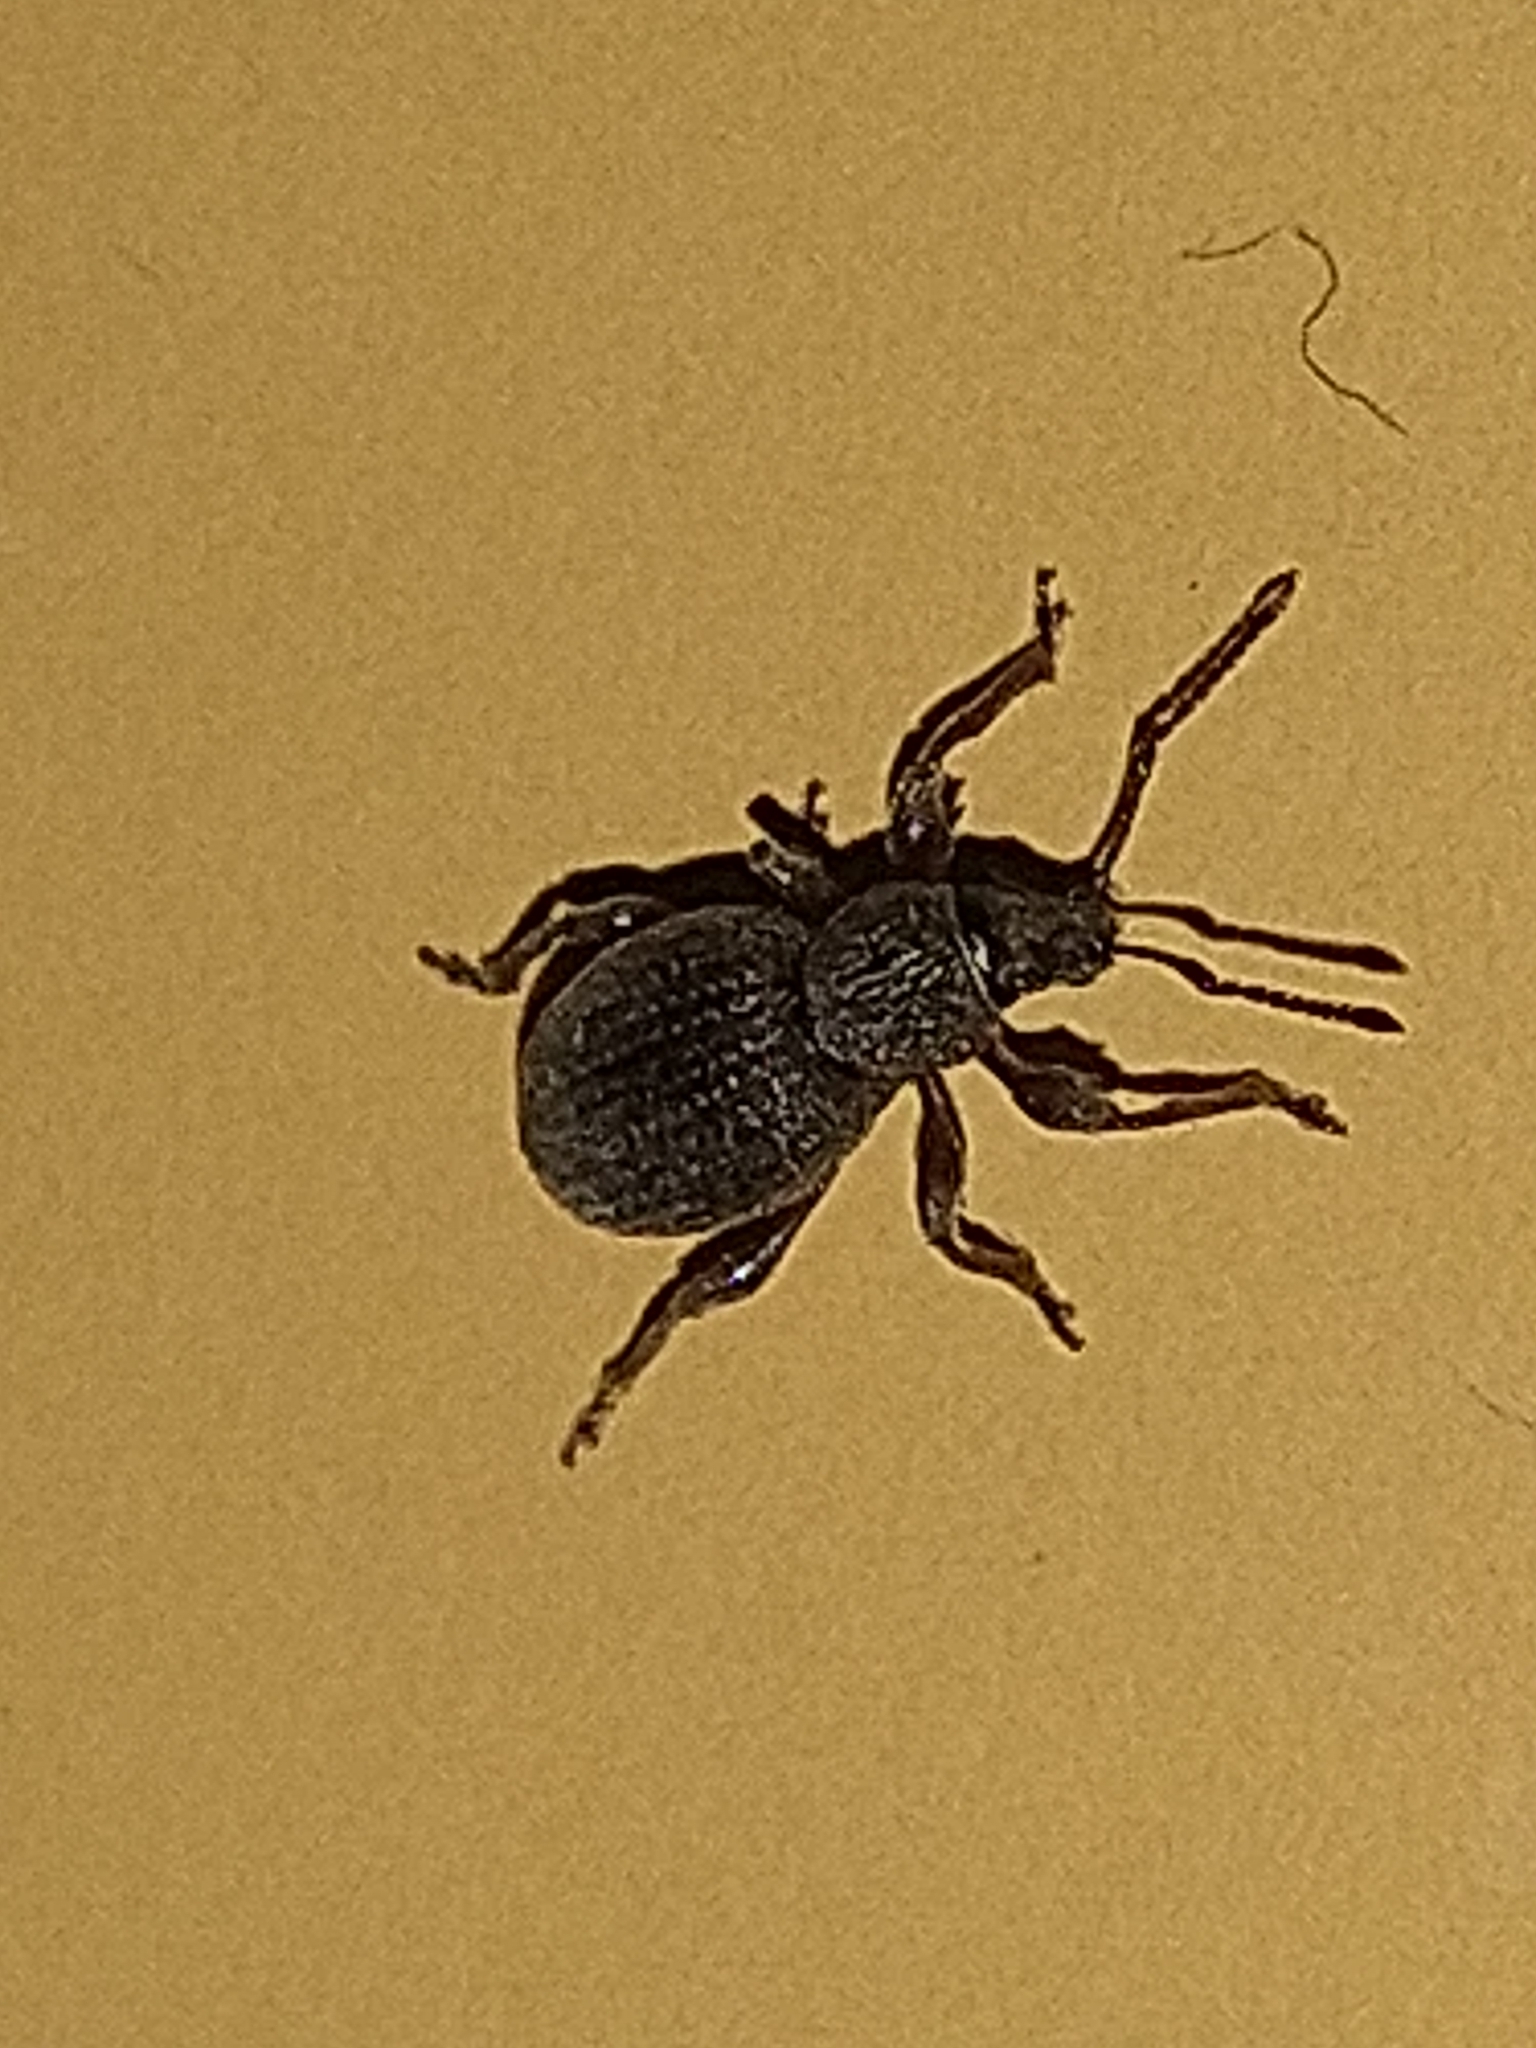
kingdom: Animalia
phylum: Arthropoda
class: Insecta
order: Coleoptera
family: Curculionidae
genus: Otiorhynchus
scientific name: Otiorhynchus ovatus
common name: Strawberry root weevil
